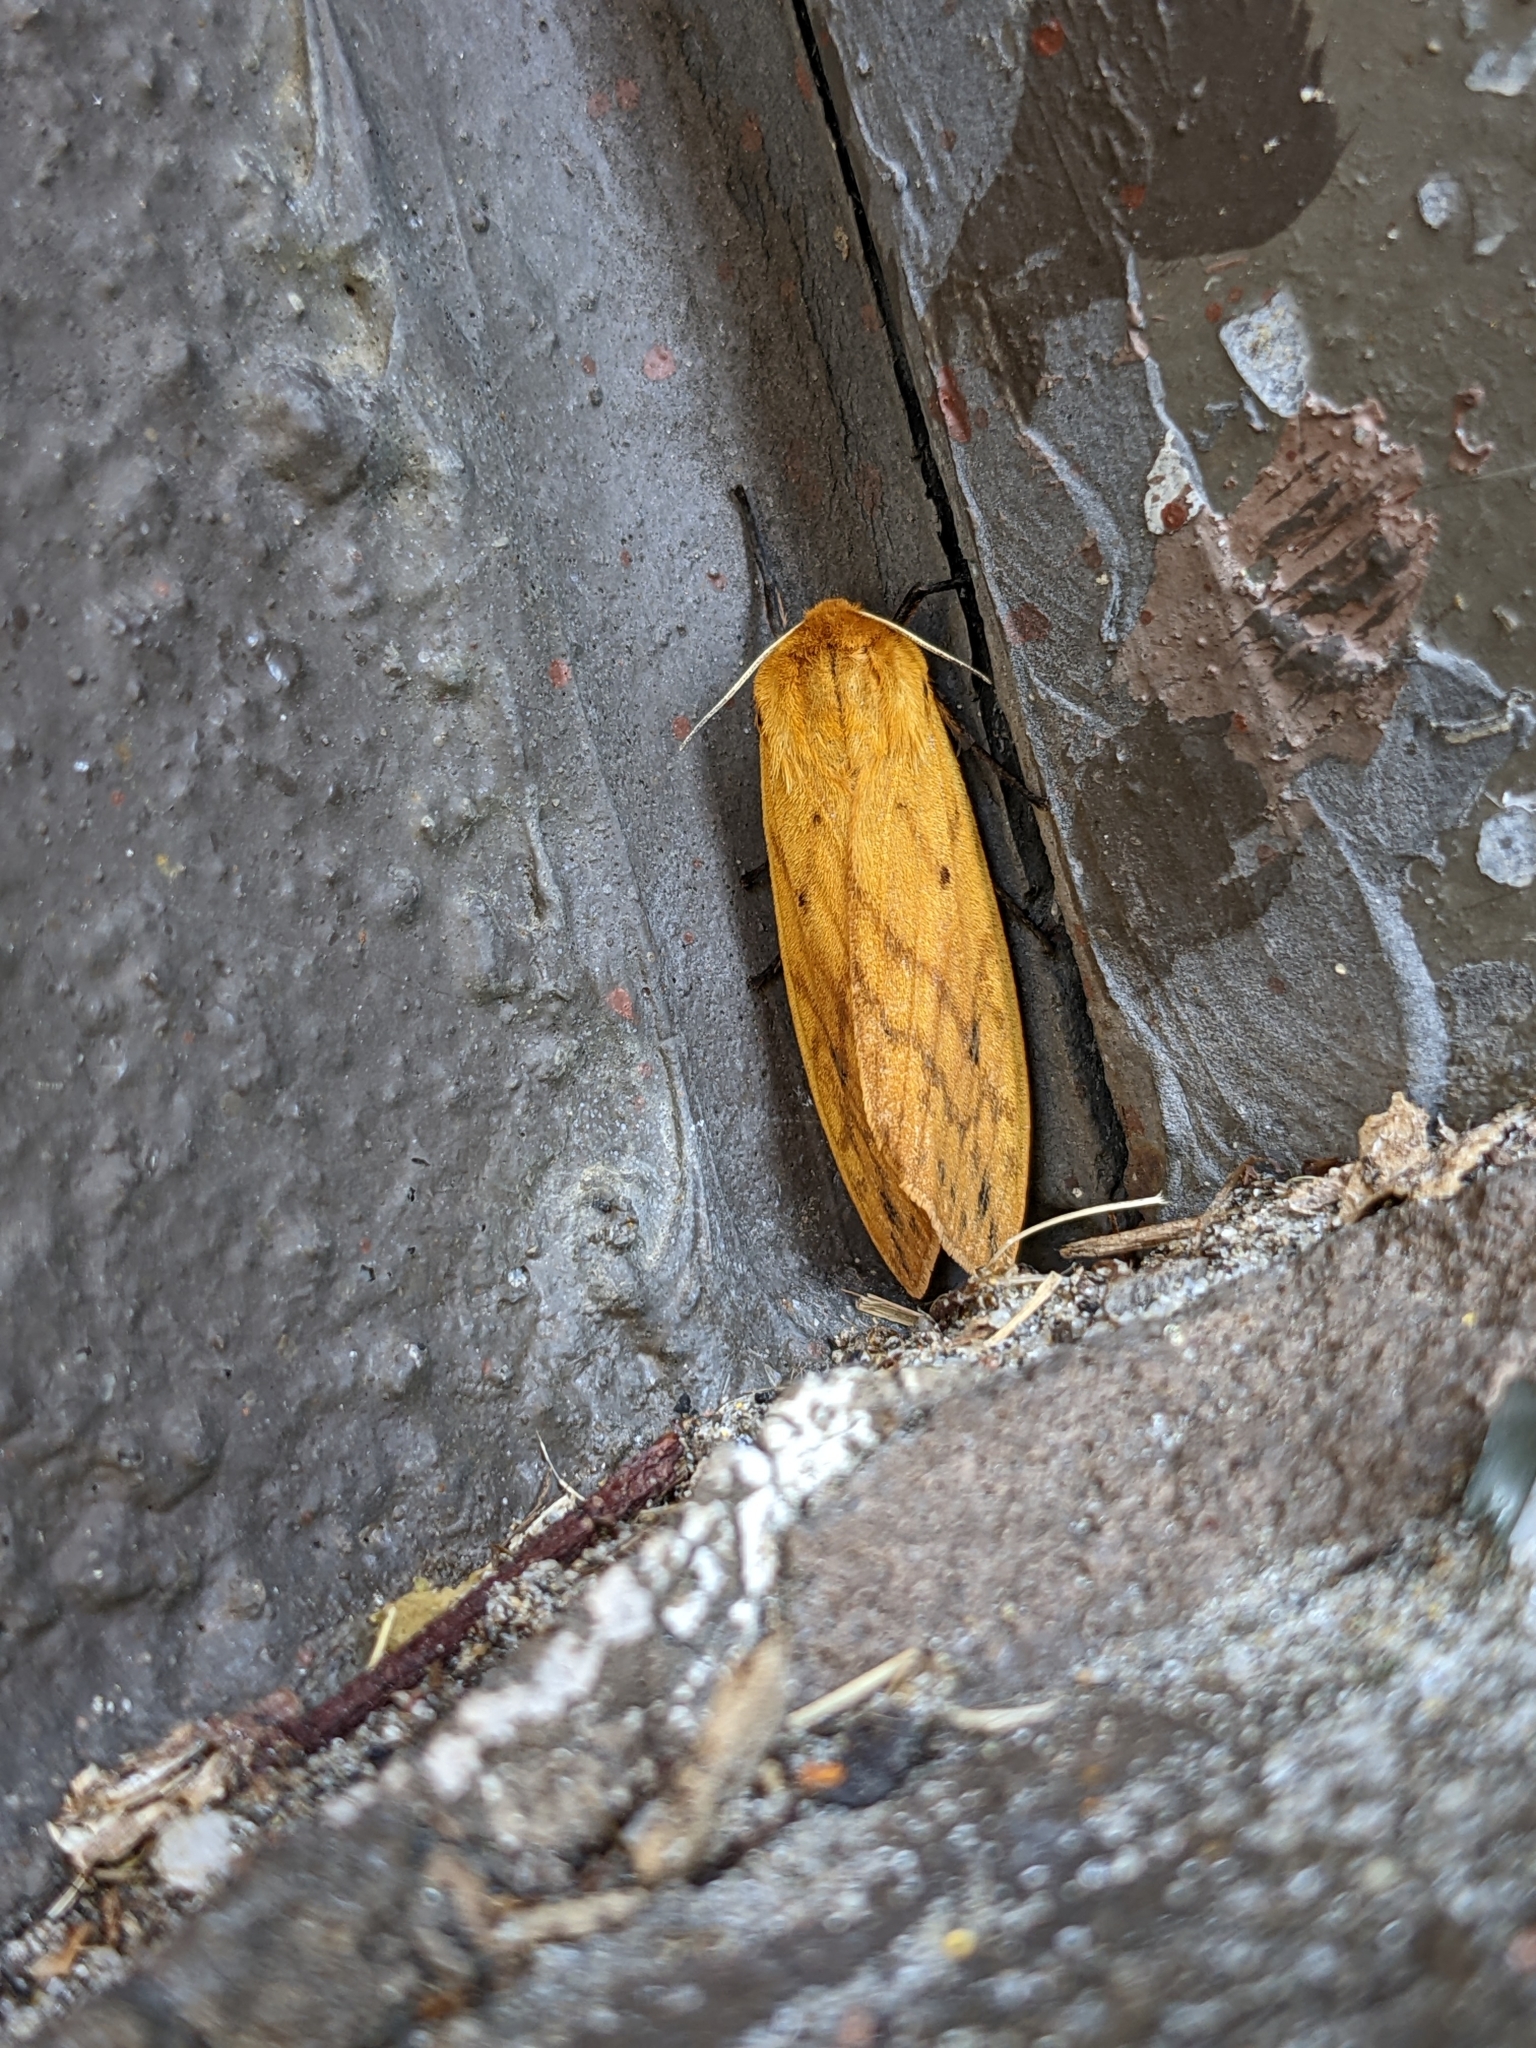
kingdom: Animalia
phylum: Arthropoda
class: Insecta
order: Lepidoptera
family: Erebidae
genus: Pyrrharctia
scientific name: Pyrrharctia isabella
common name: Isabella tiger moth
